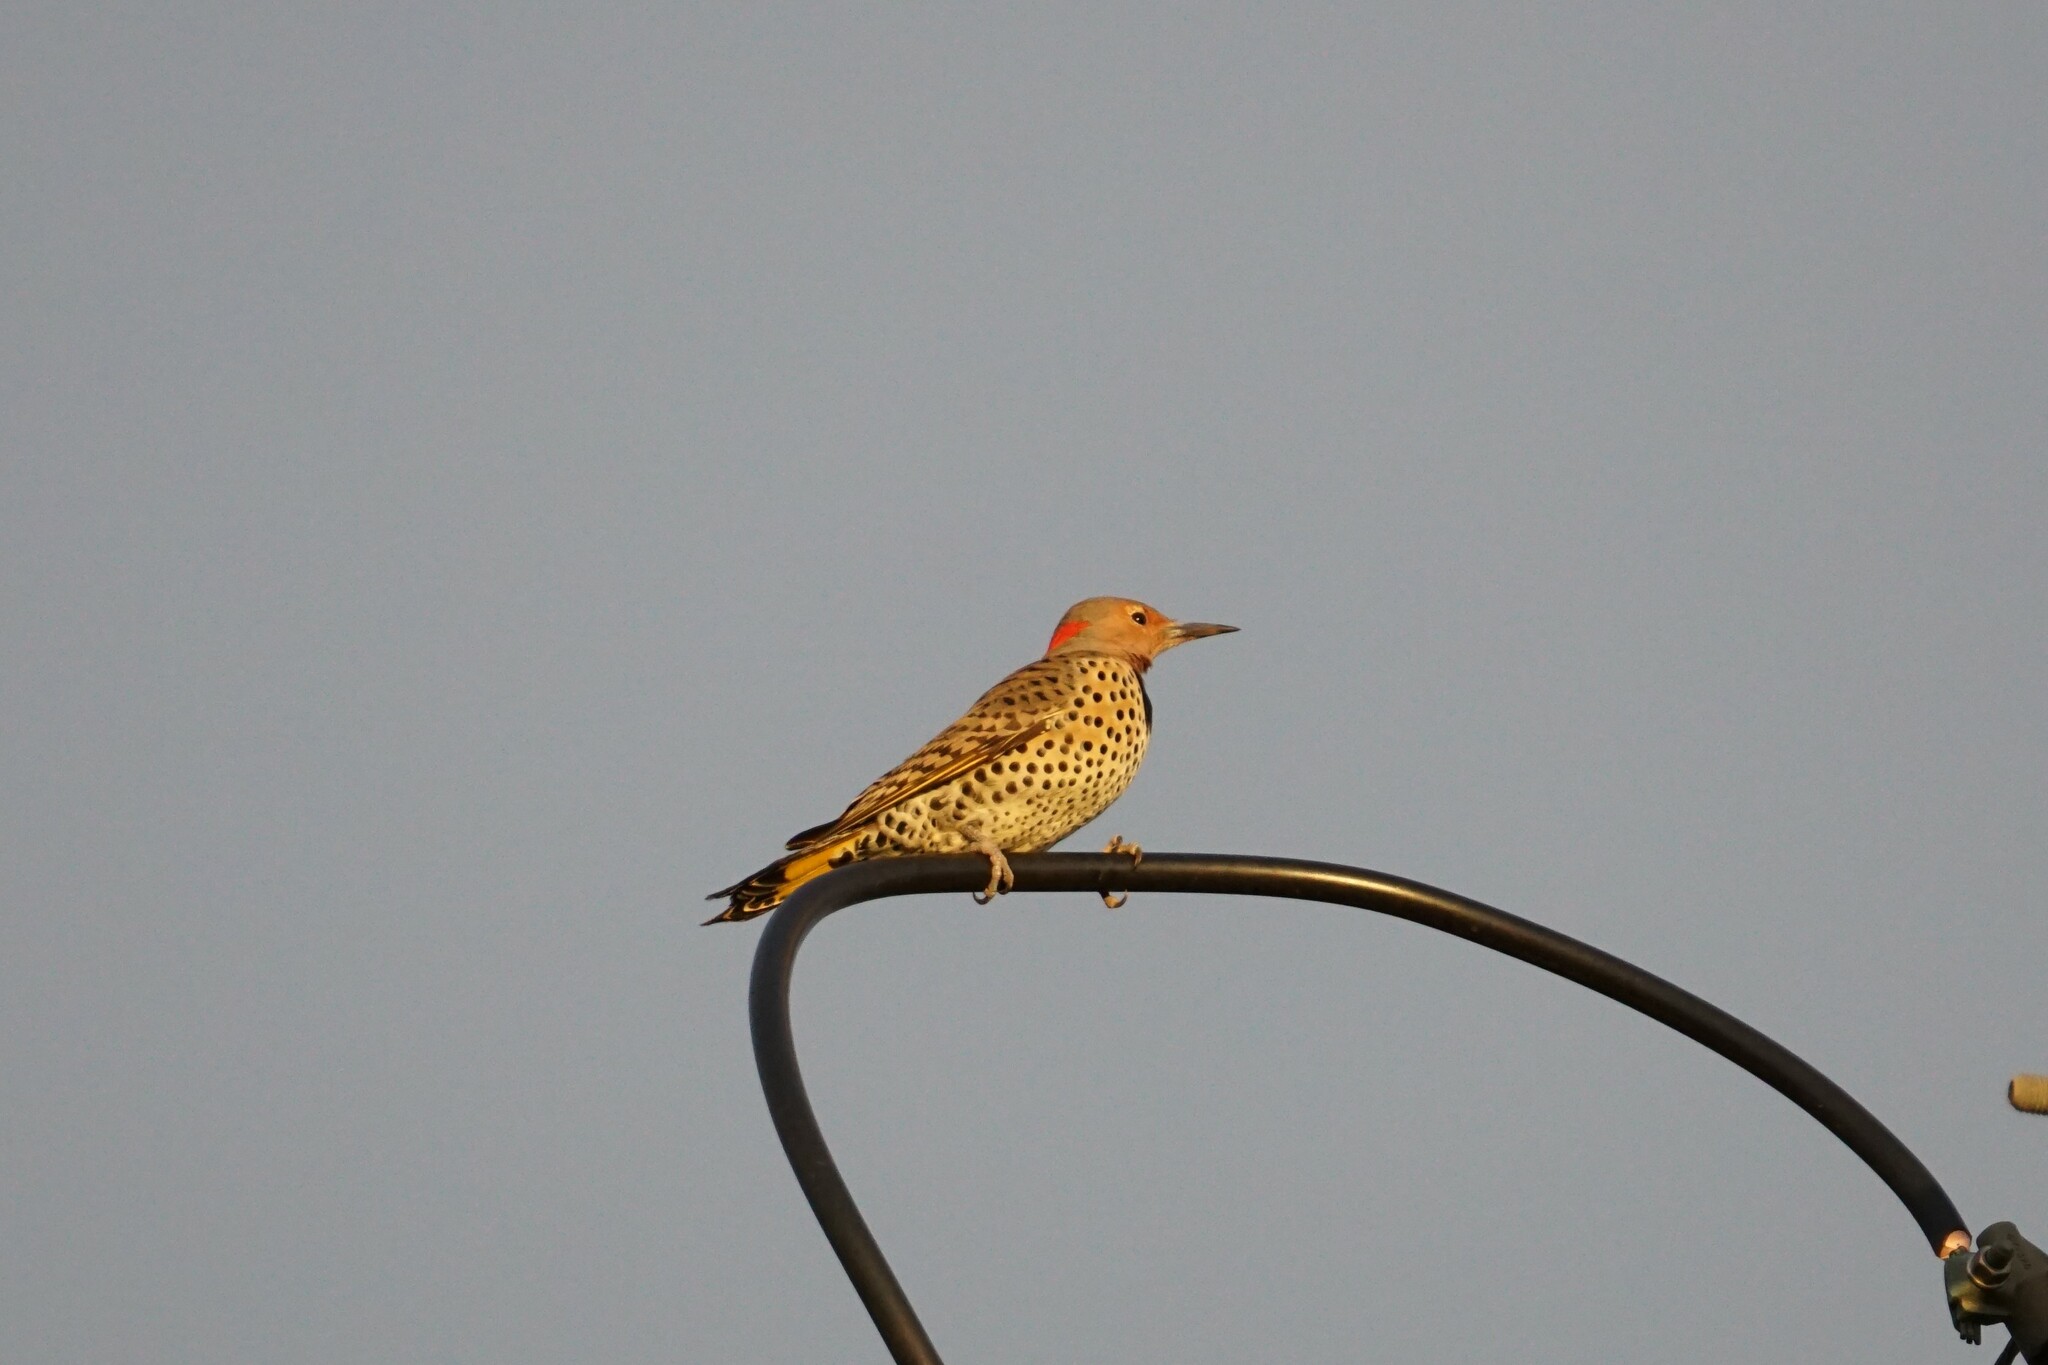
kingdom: Animalia
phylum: Chordata
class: Aves
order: Piciformes
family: Picidae
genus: Colaptes
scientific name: Colaptes auratus
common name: Northern flicker
